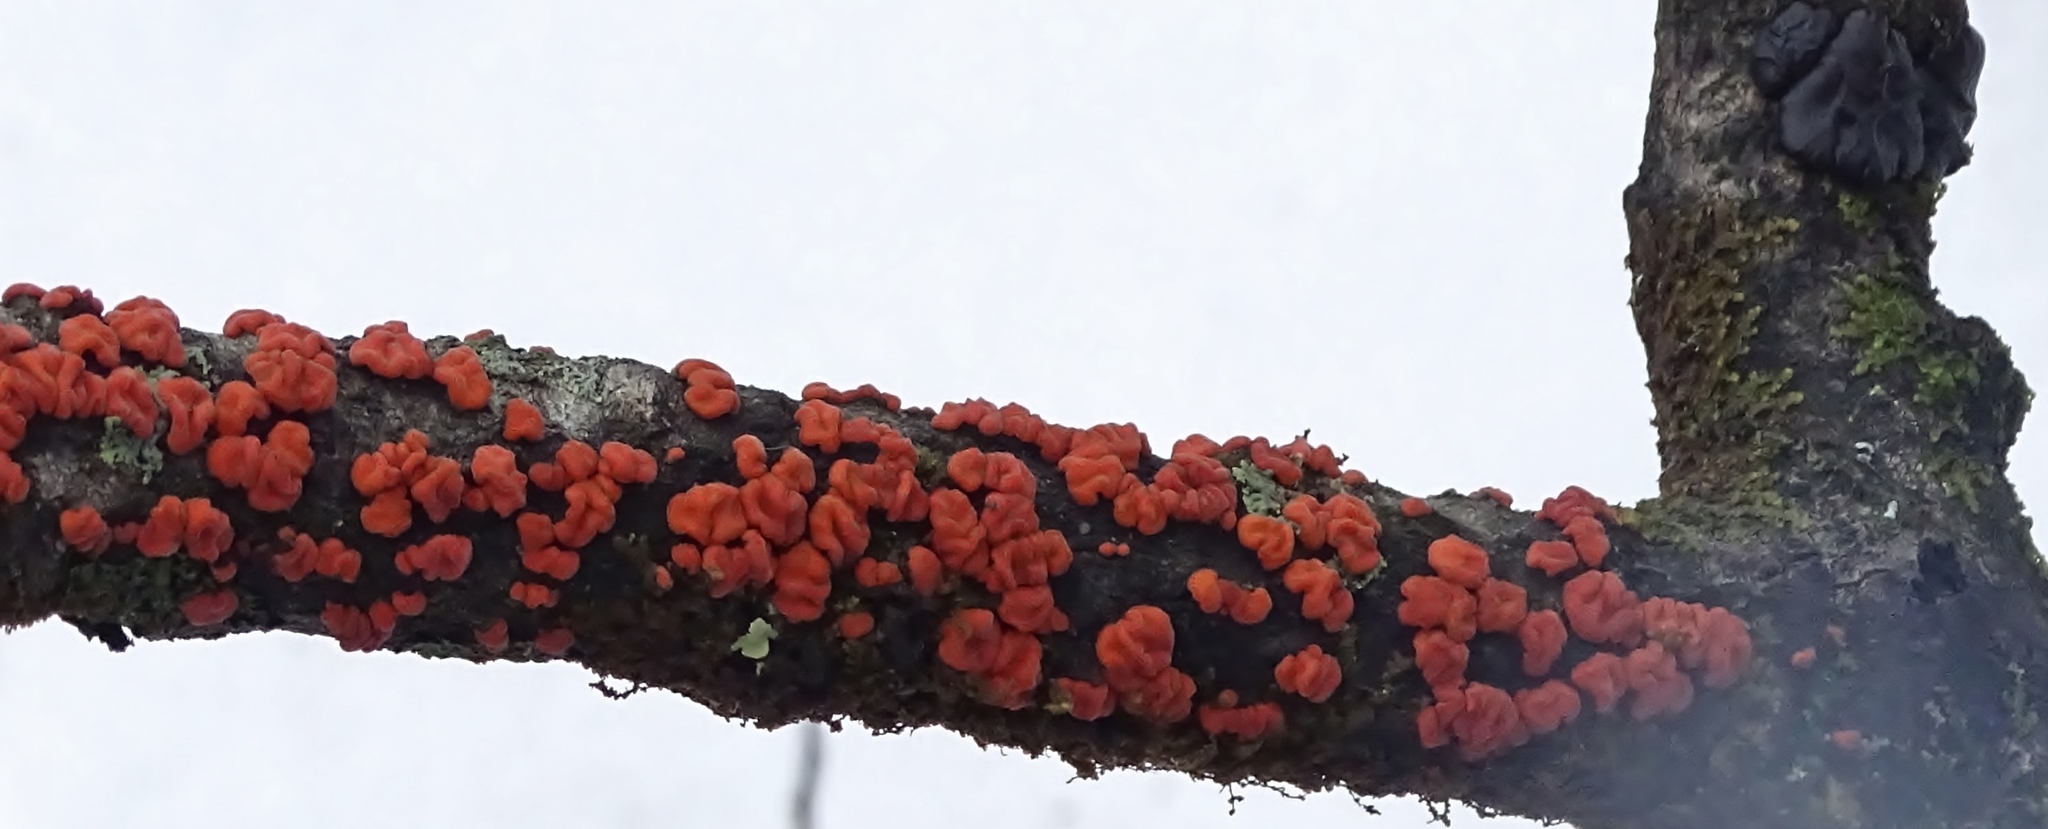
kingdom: Fungi
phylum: Basidiomycota
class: Agaricomycetes
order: Russulales
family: Peniophoraceae
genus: Peniophora
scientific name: Peniophora rufa
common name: Red tree brain fungus
